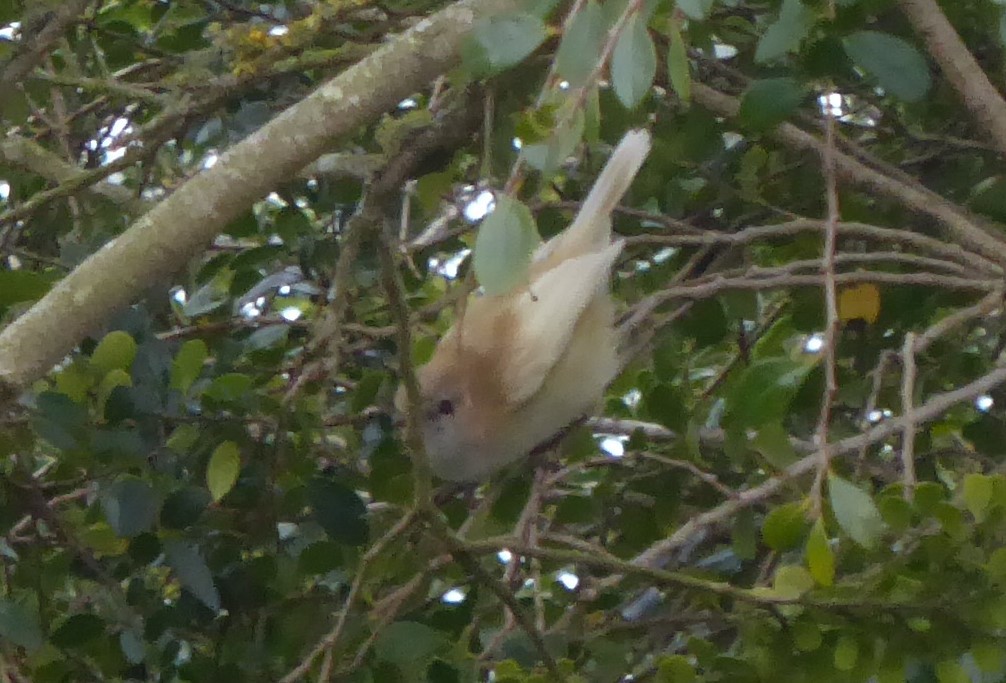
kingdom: Animalia
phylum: Chordata
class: Aves
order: Passeriformes
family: Acanthizidae
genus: Gerygone
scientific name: Gerygone igata
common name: Grey gerygone
